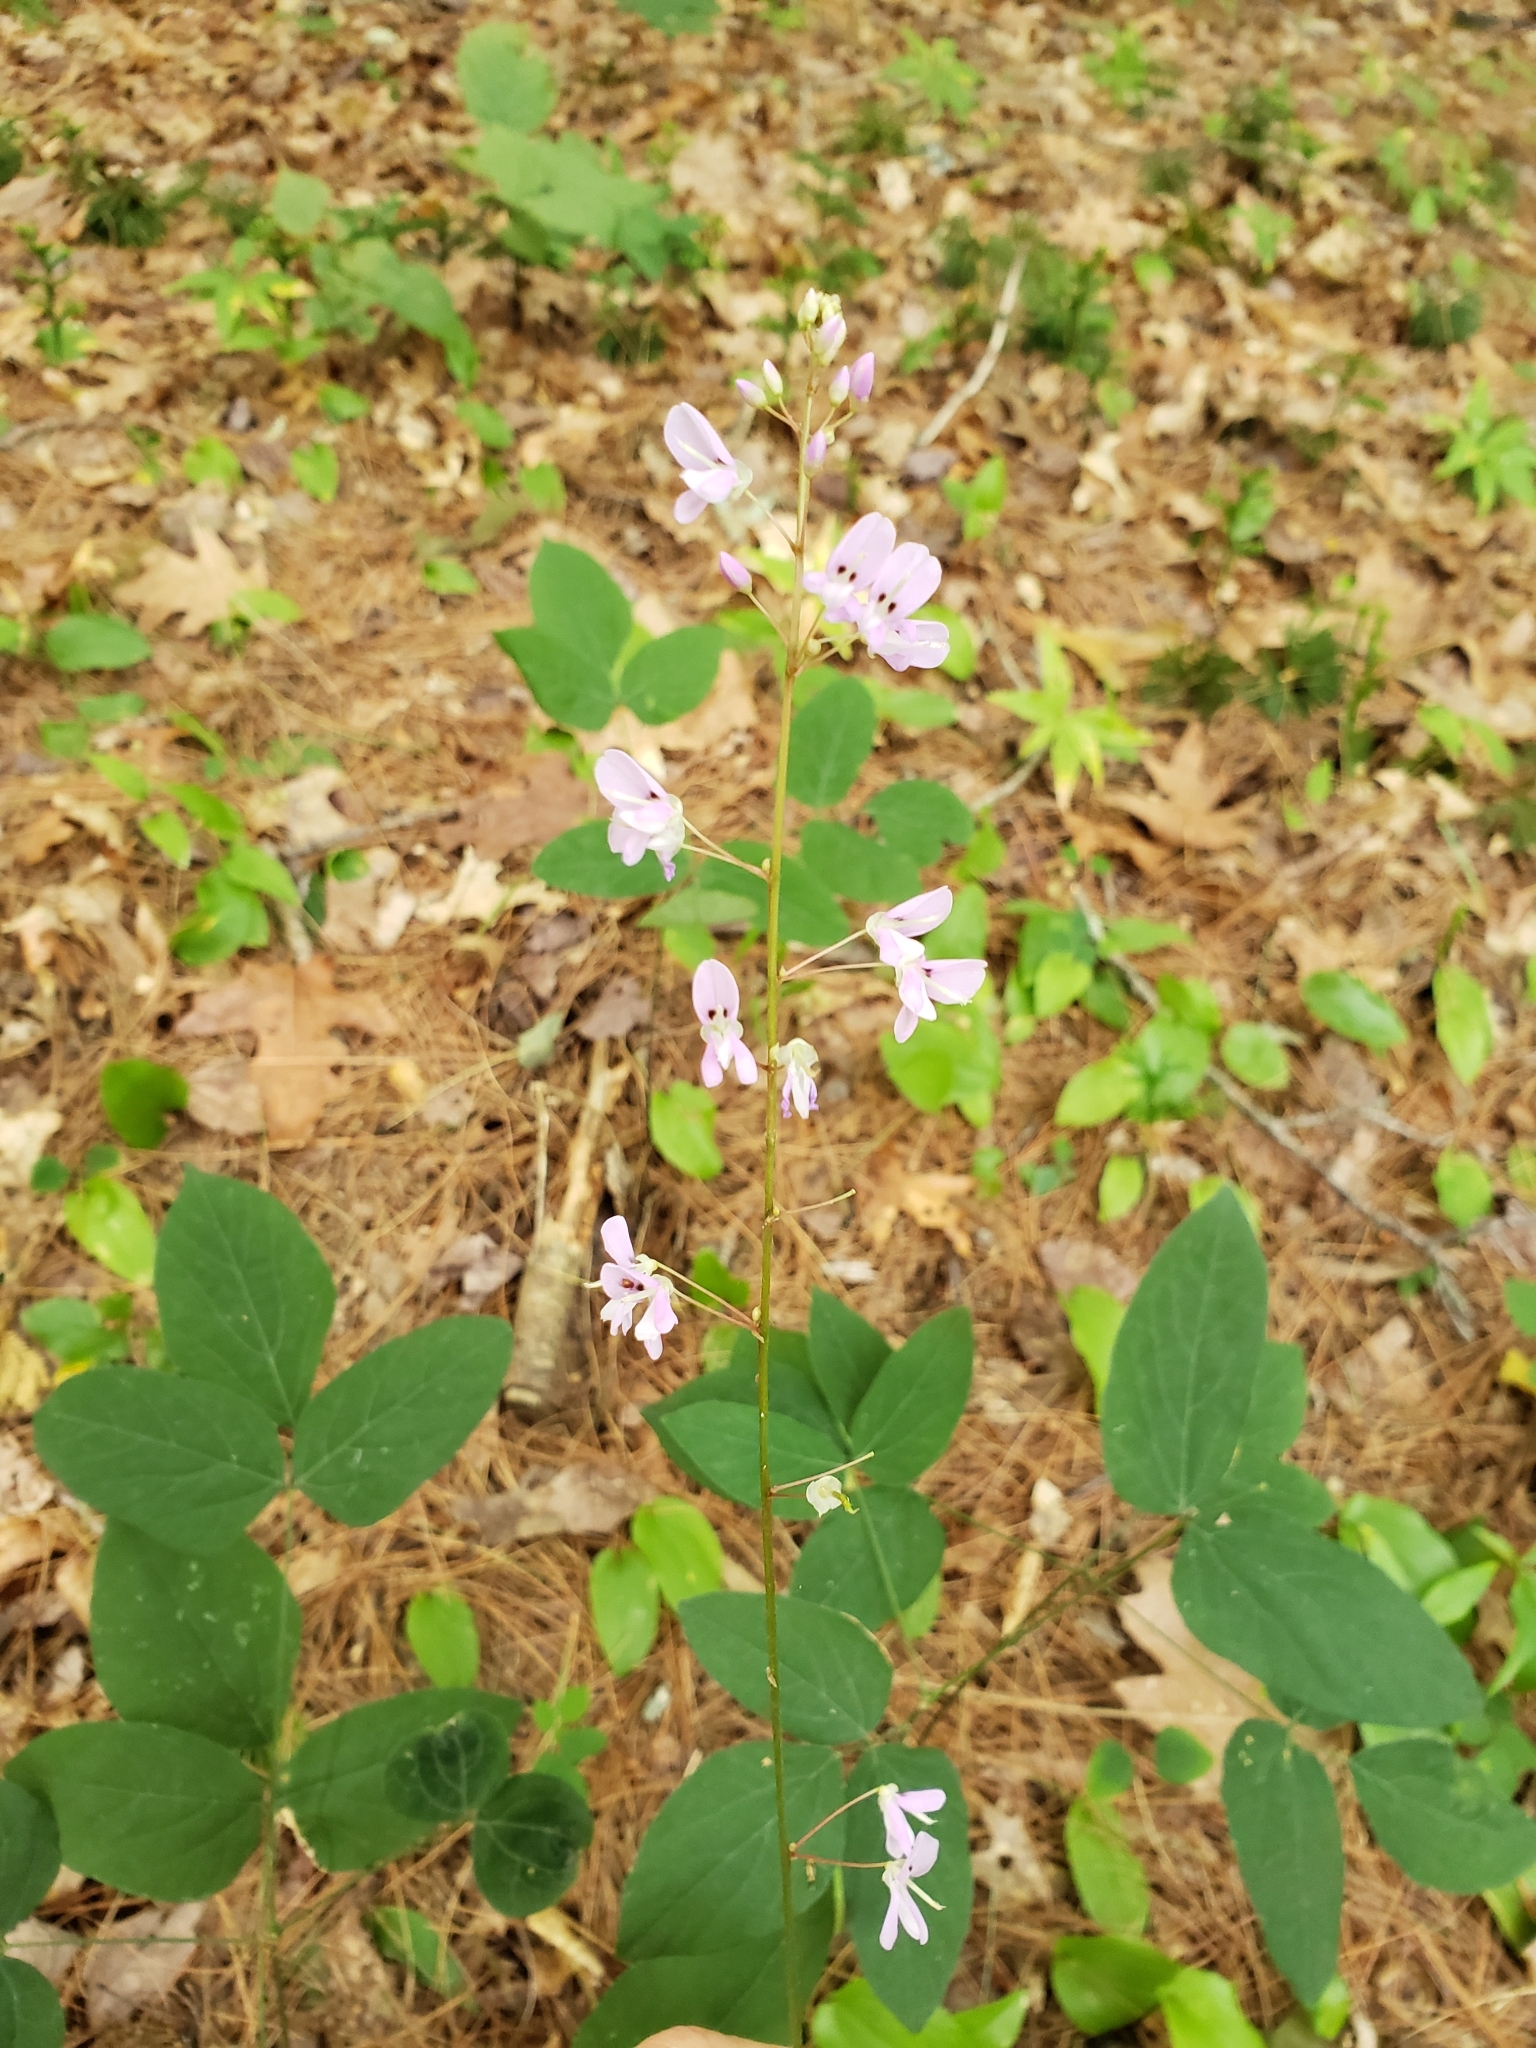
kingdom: Plantae
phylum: Tracheophyta
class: Magnoliopsida
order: Fabales
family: Fabaceae
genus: Hylodesmum
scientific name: Hylodesmum nudiflorum
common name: Bare-stemmed tick-trefoil
